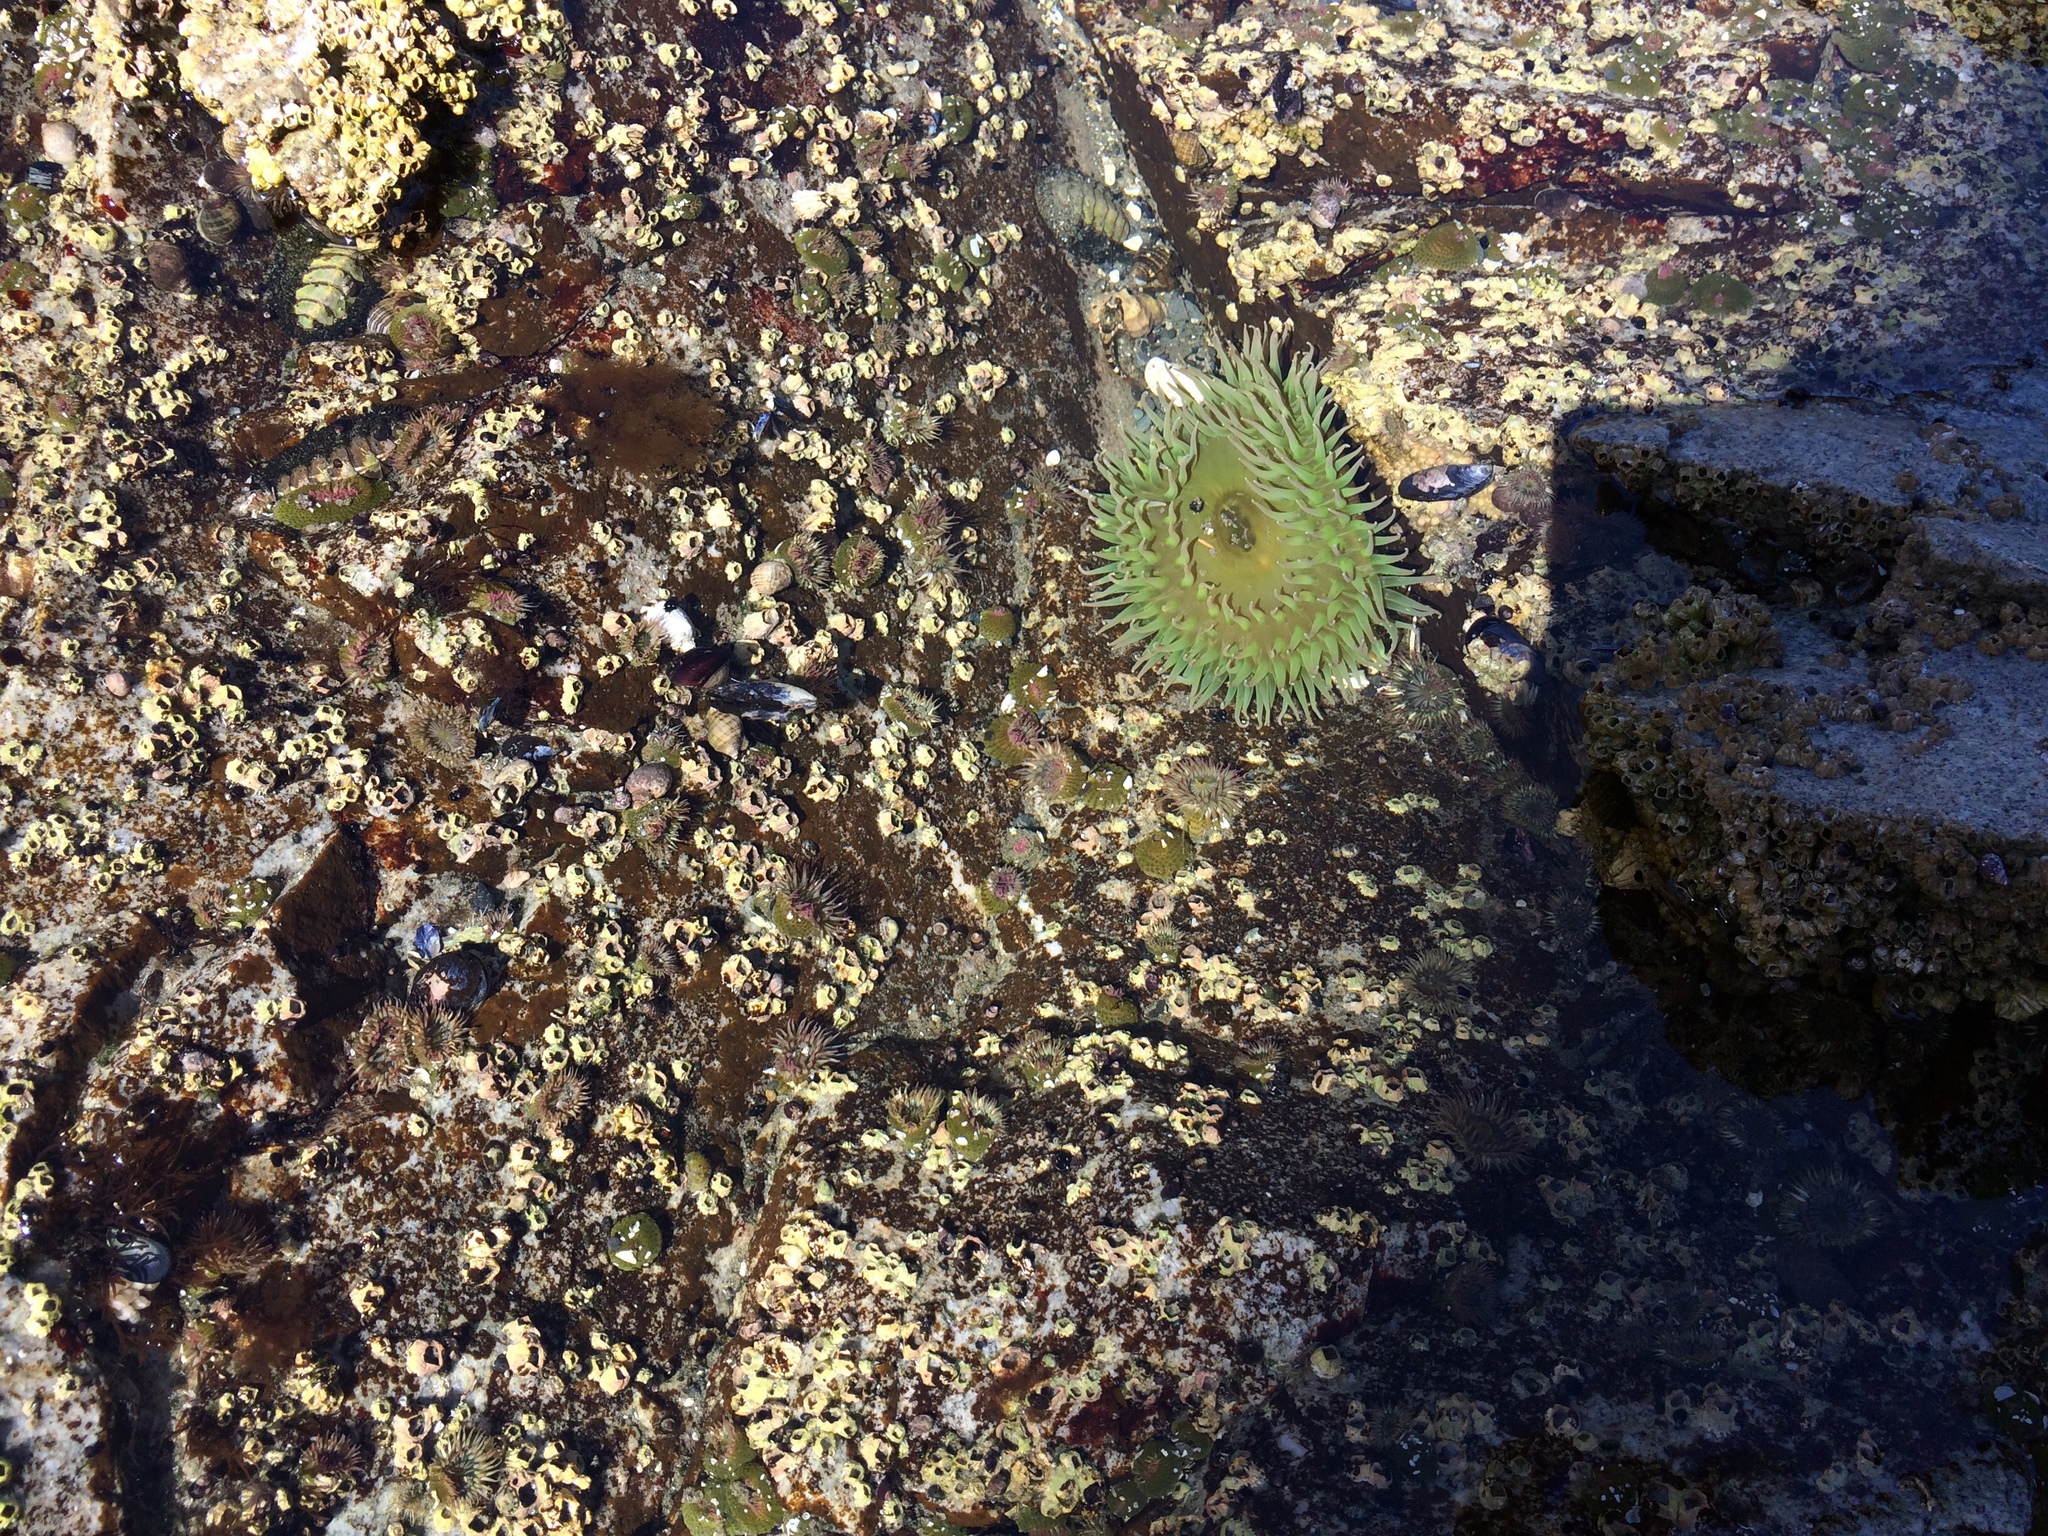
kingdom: Animalia
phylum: Cnidaria
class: Anthozoa
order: Actiniaria
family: Actiniidae
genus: Anthopleura
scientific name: Anthopleura xanthogrammica
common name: Giant green anemone
